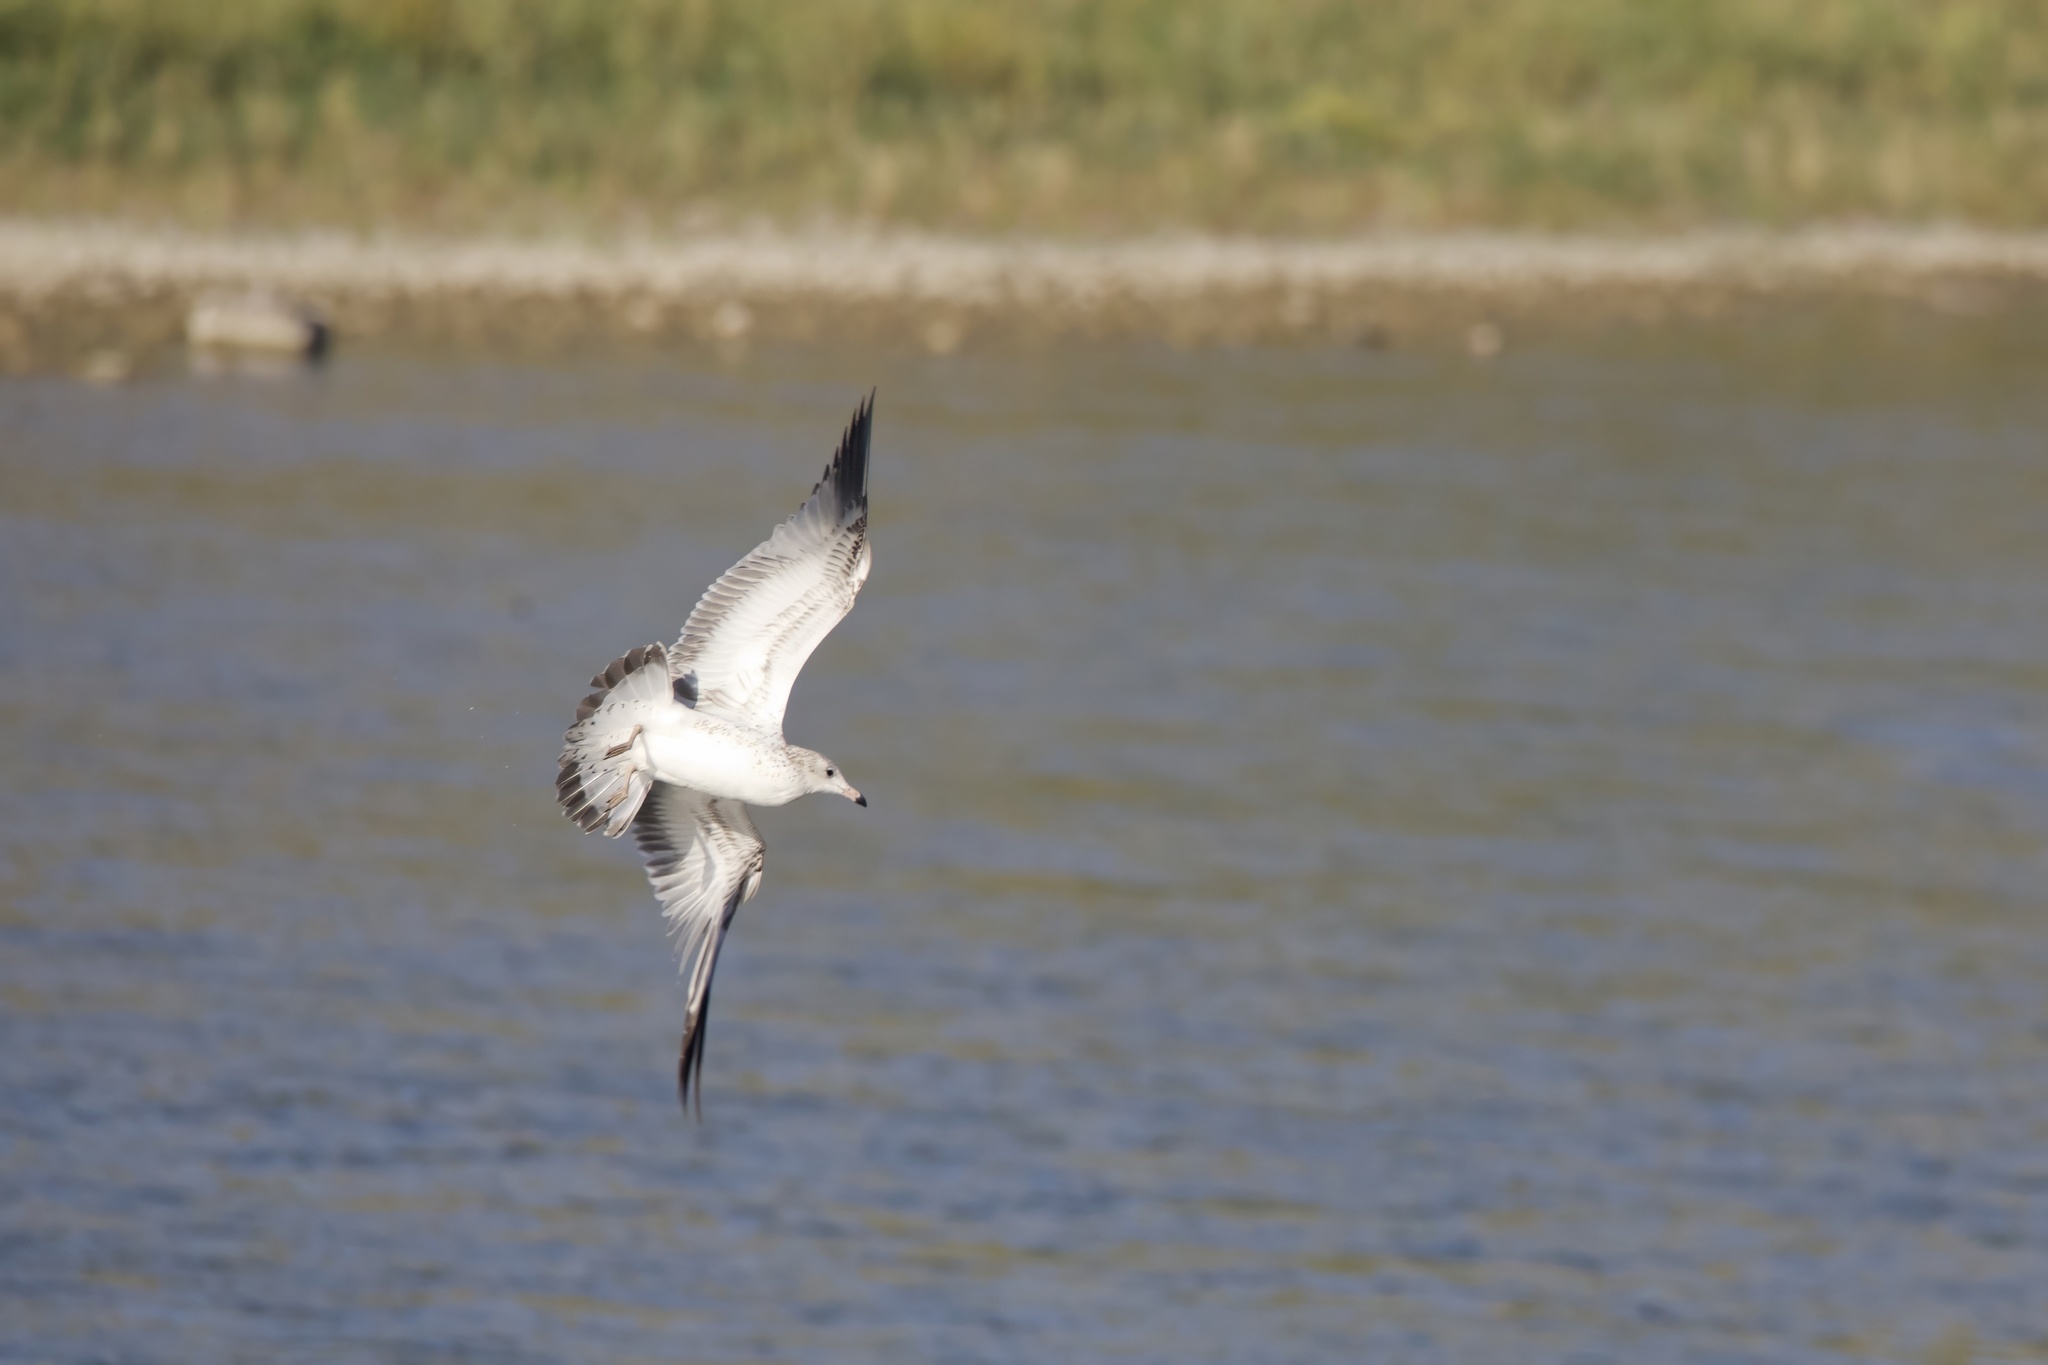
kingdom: Animalia
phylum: Chordata
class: Aves
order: Charadriiformes
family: Laridae
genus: Larus
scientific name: Larus delawarensis
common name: Ring-billed gull
